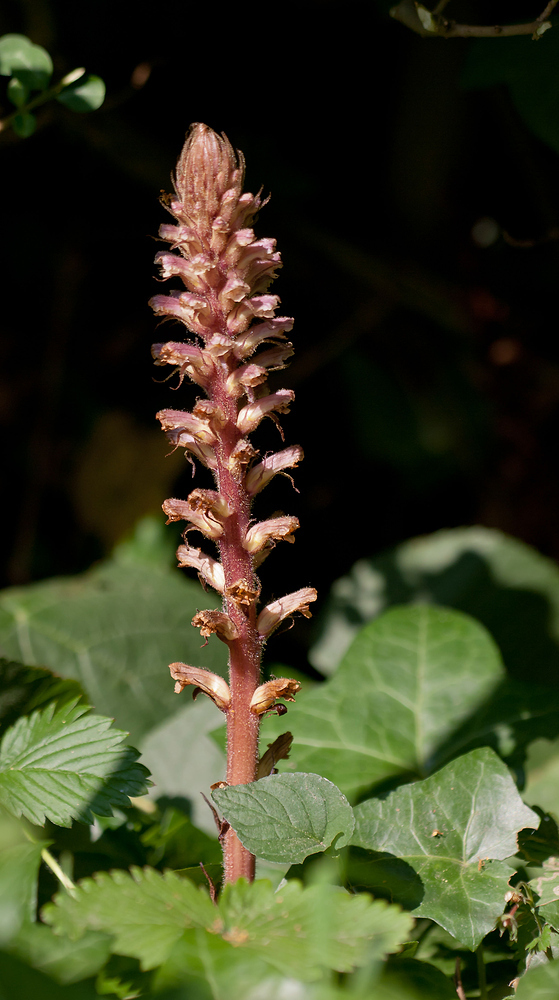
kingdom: Plantae
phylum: Tracheophyta
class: Magnoliopsida
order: Lamiales
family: Orobanchaceae
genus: Orobanche
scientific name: Orobanche hederae
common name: Ivy broomrape
